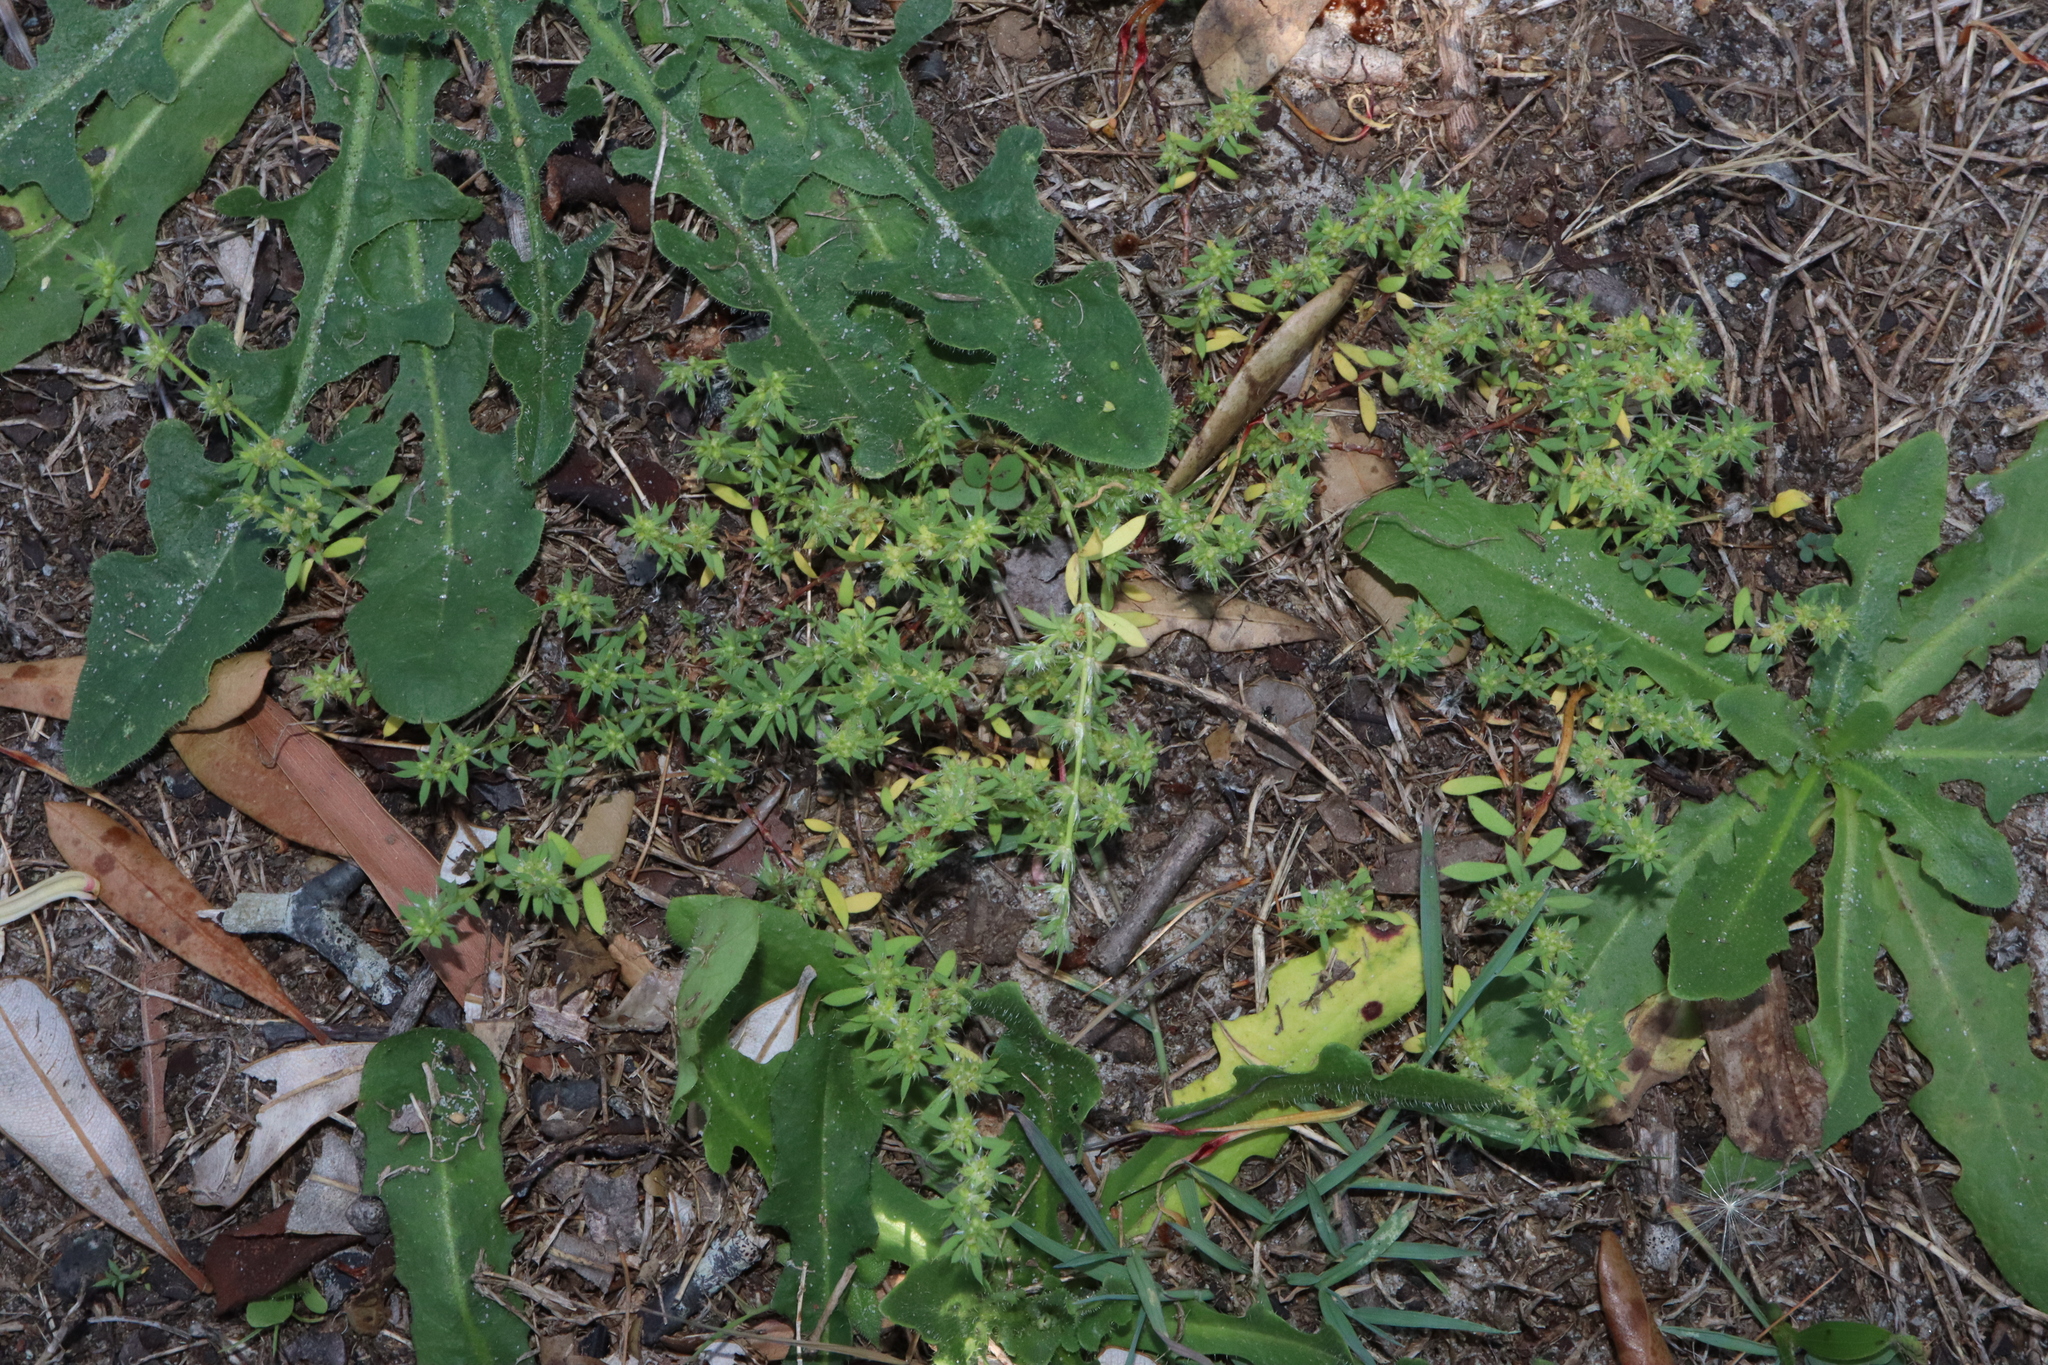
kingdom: Plantae
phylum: Tracheophyta
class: Magnoliopsida
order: Caryophyllales
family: Caryophyllaceae
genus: Paronychia
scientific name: Paronychia brasiliana
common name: Brazilian whitlow
